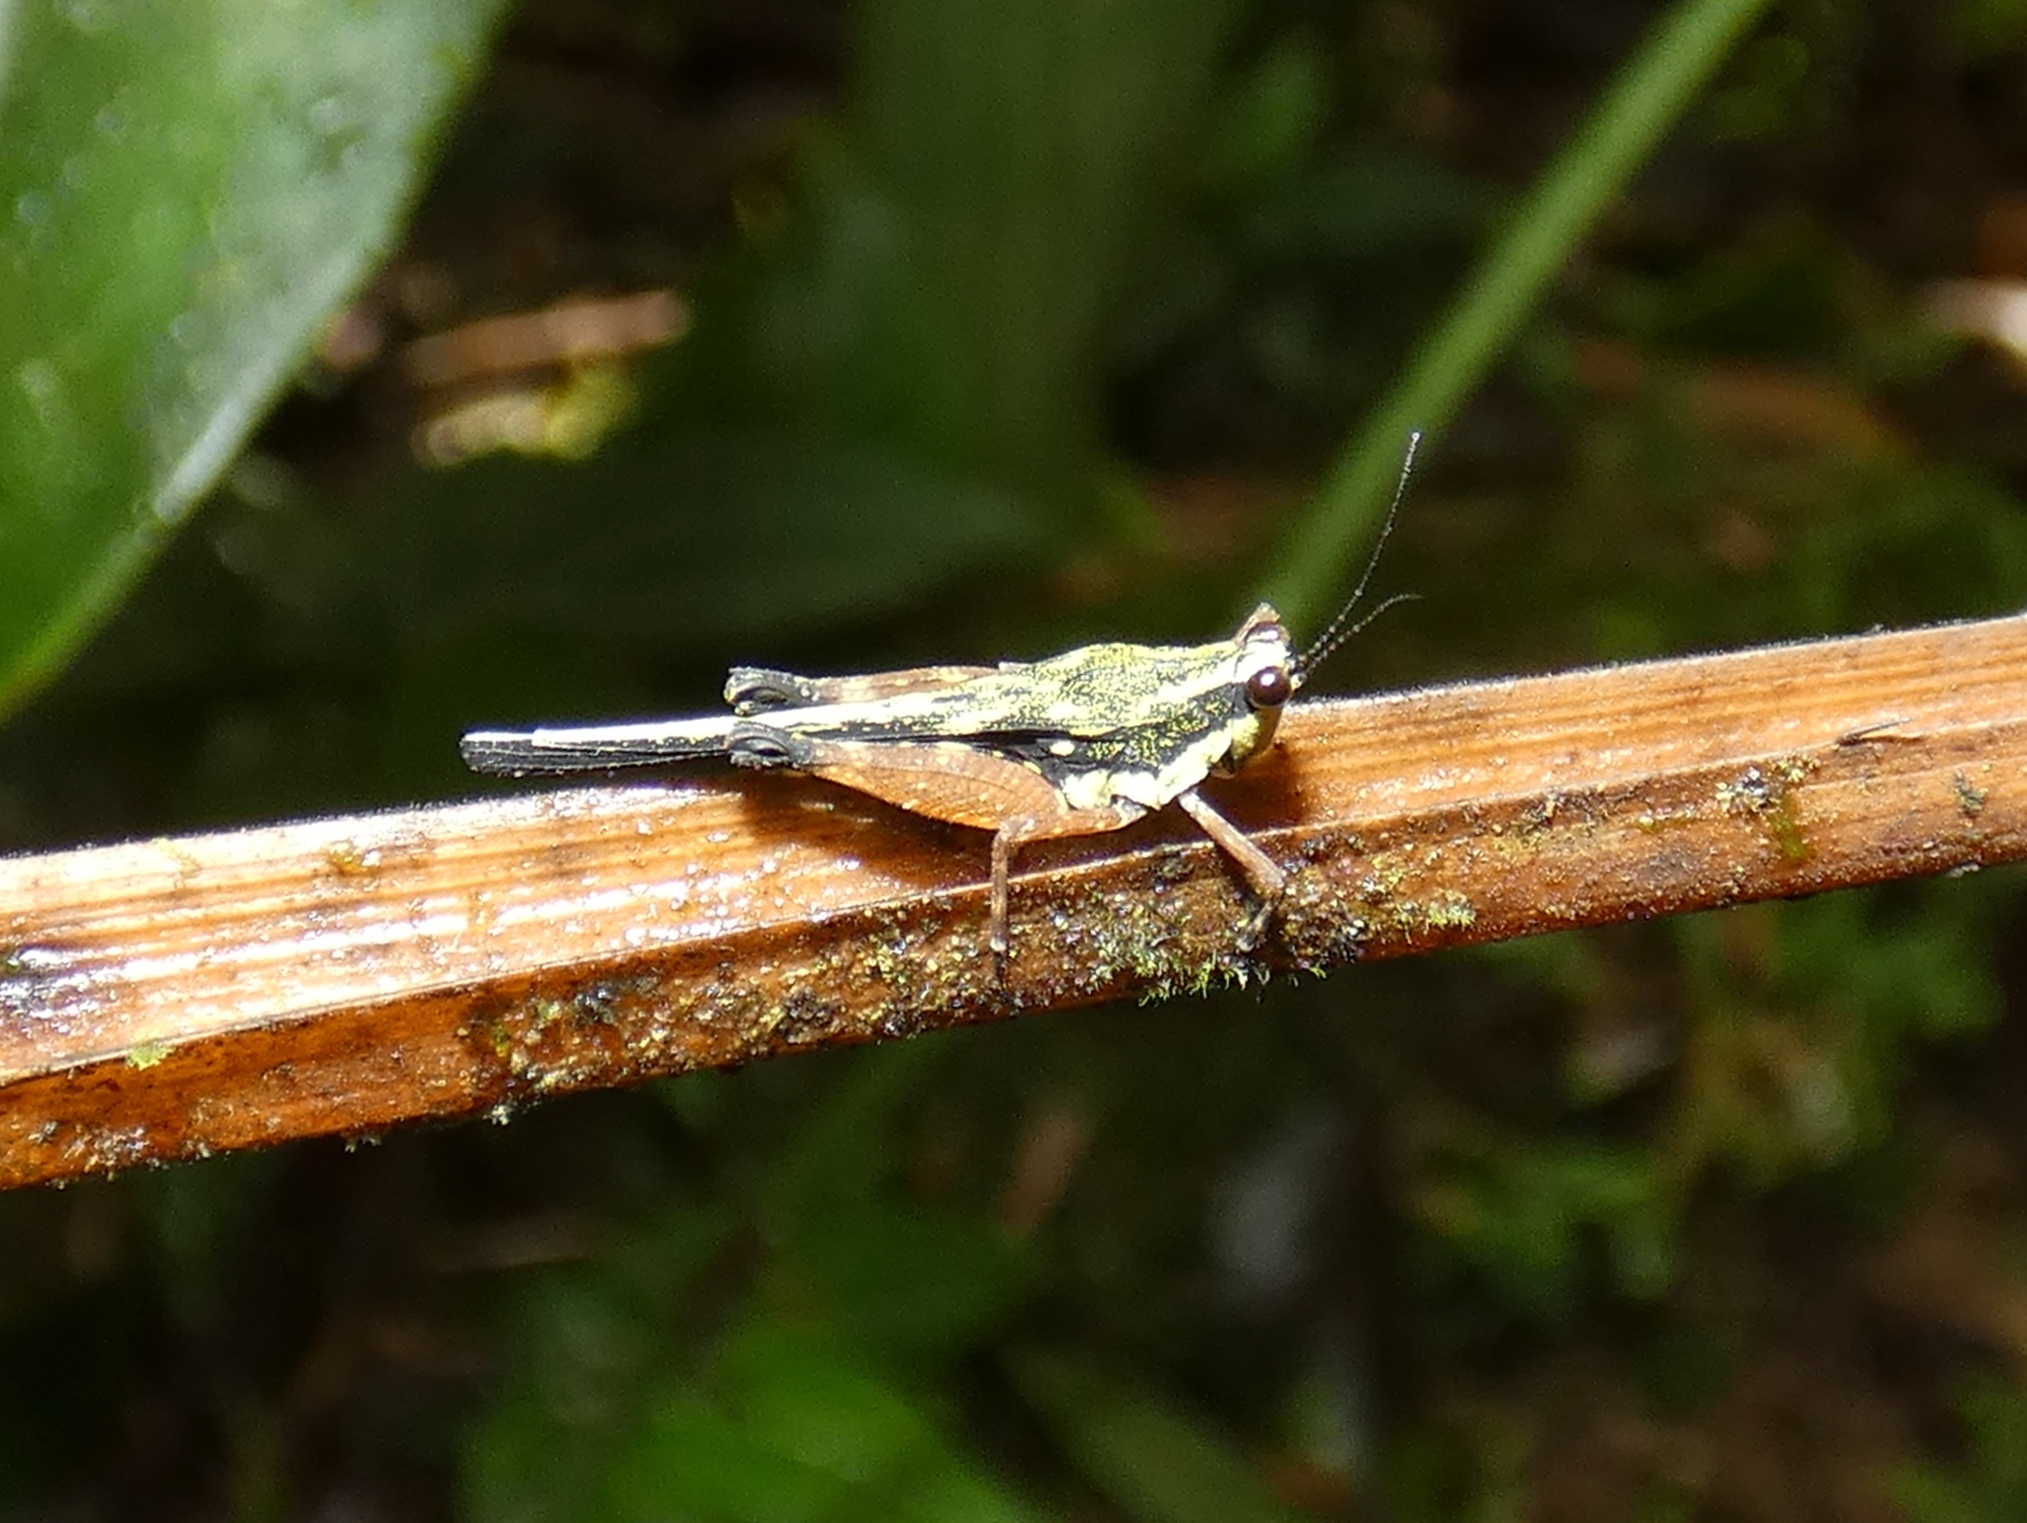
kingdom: Animalia
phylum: Arthropoda
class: Insecta
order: Orthoptera
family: Tetrigidae
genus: Scaria
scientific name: Scaria fasciata
